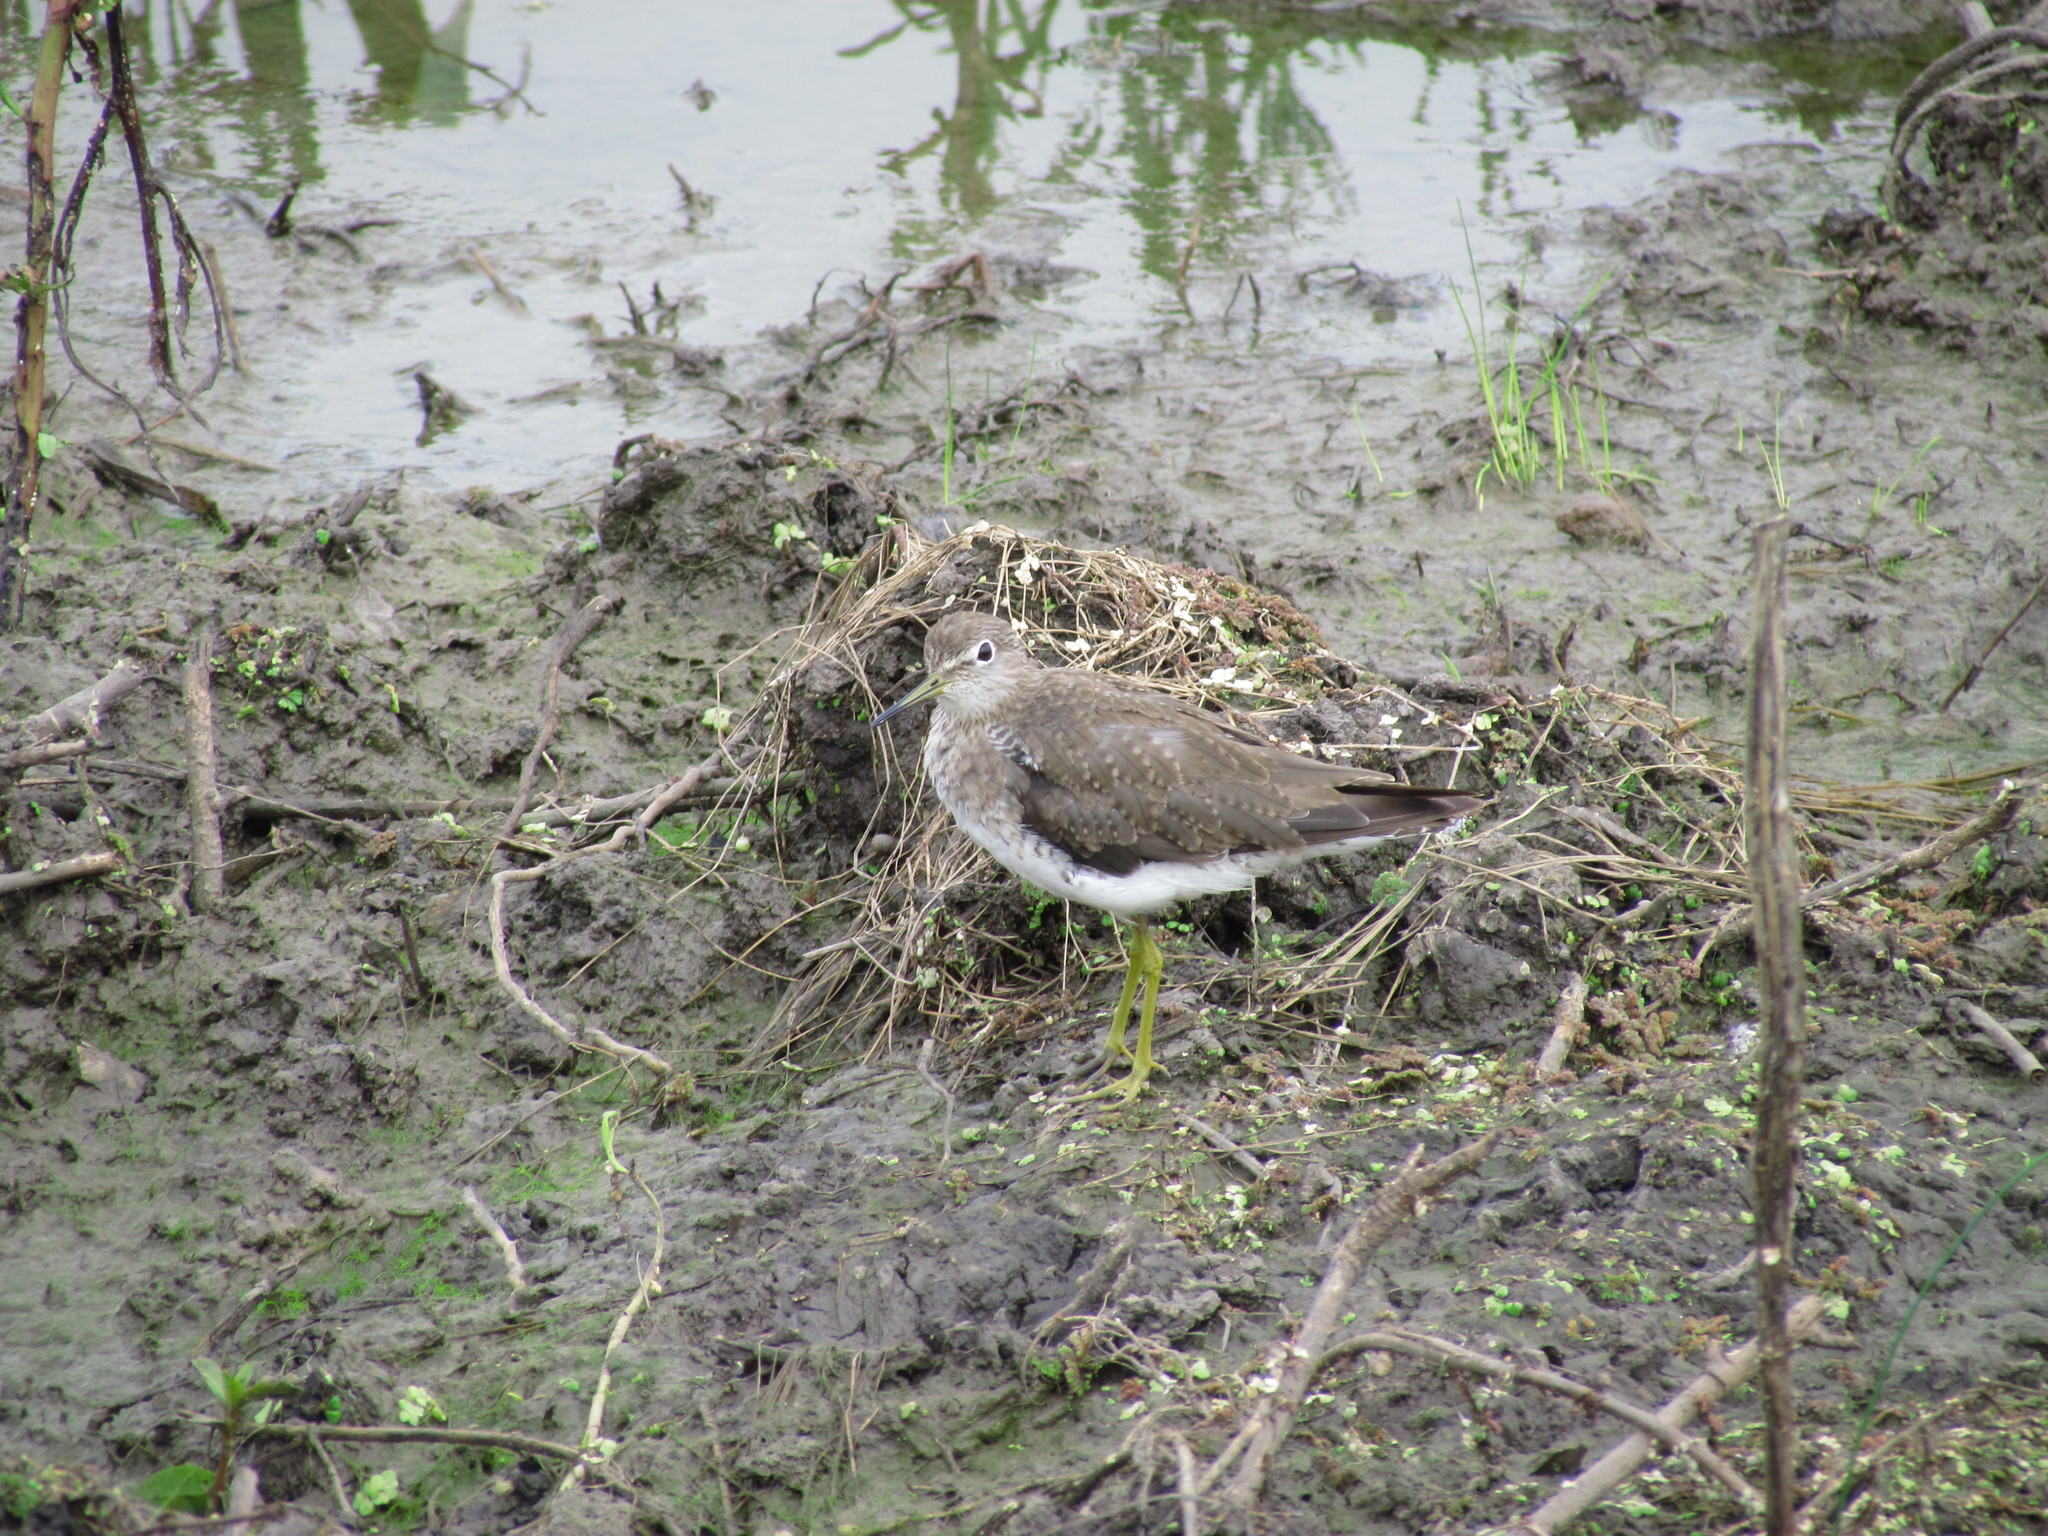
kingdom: Animalia
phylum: Chordata
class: Aves
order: Charadriiformes
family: Scolopacidae
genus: Tringa
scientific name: Tringa solitaria
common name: Solitary sandpiper
